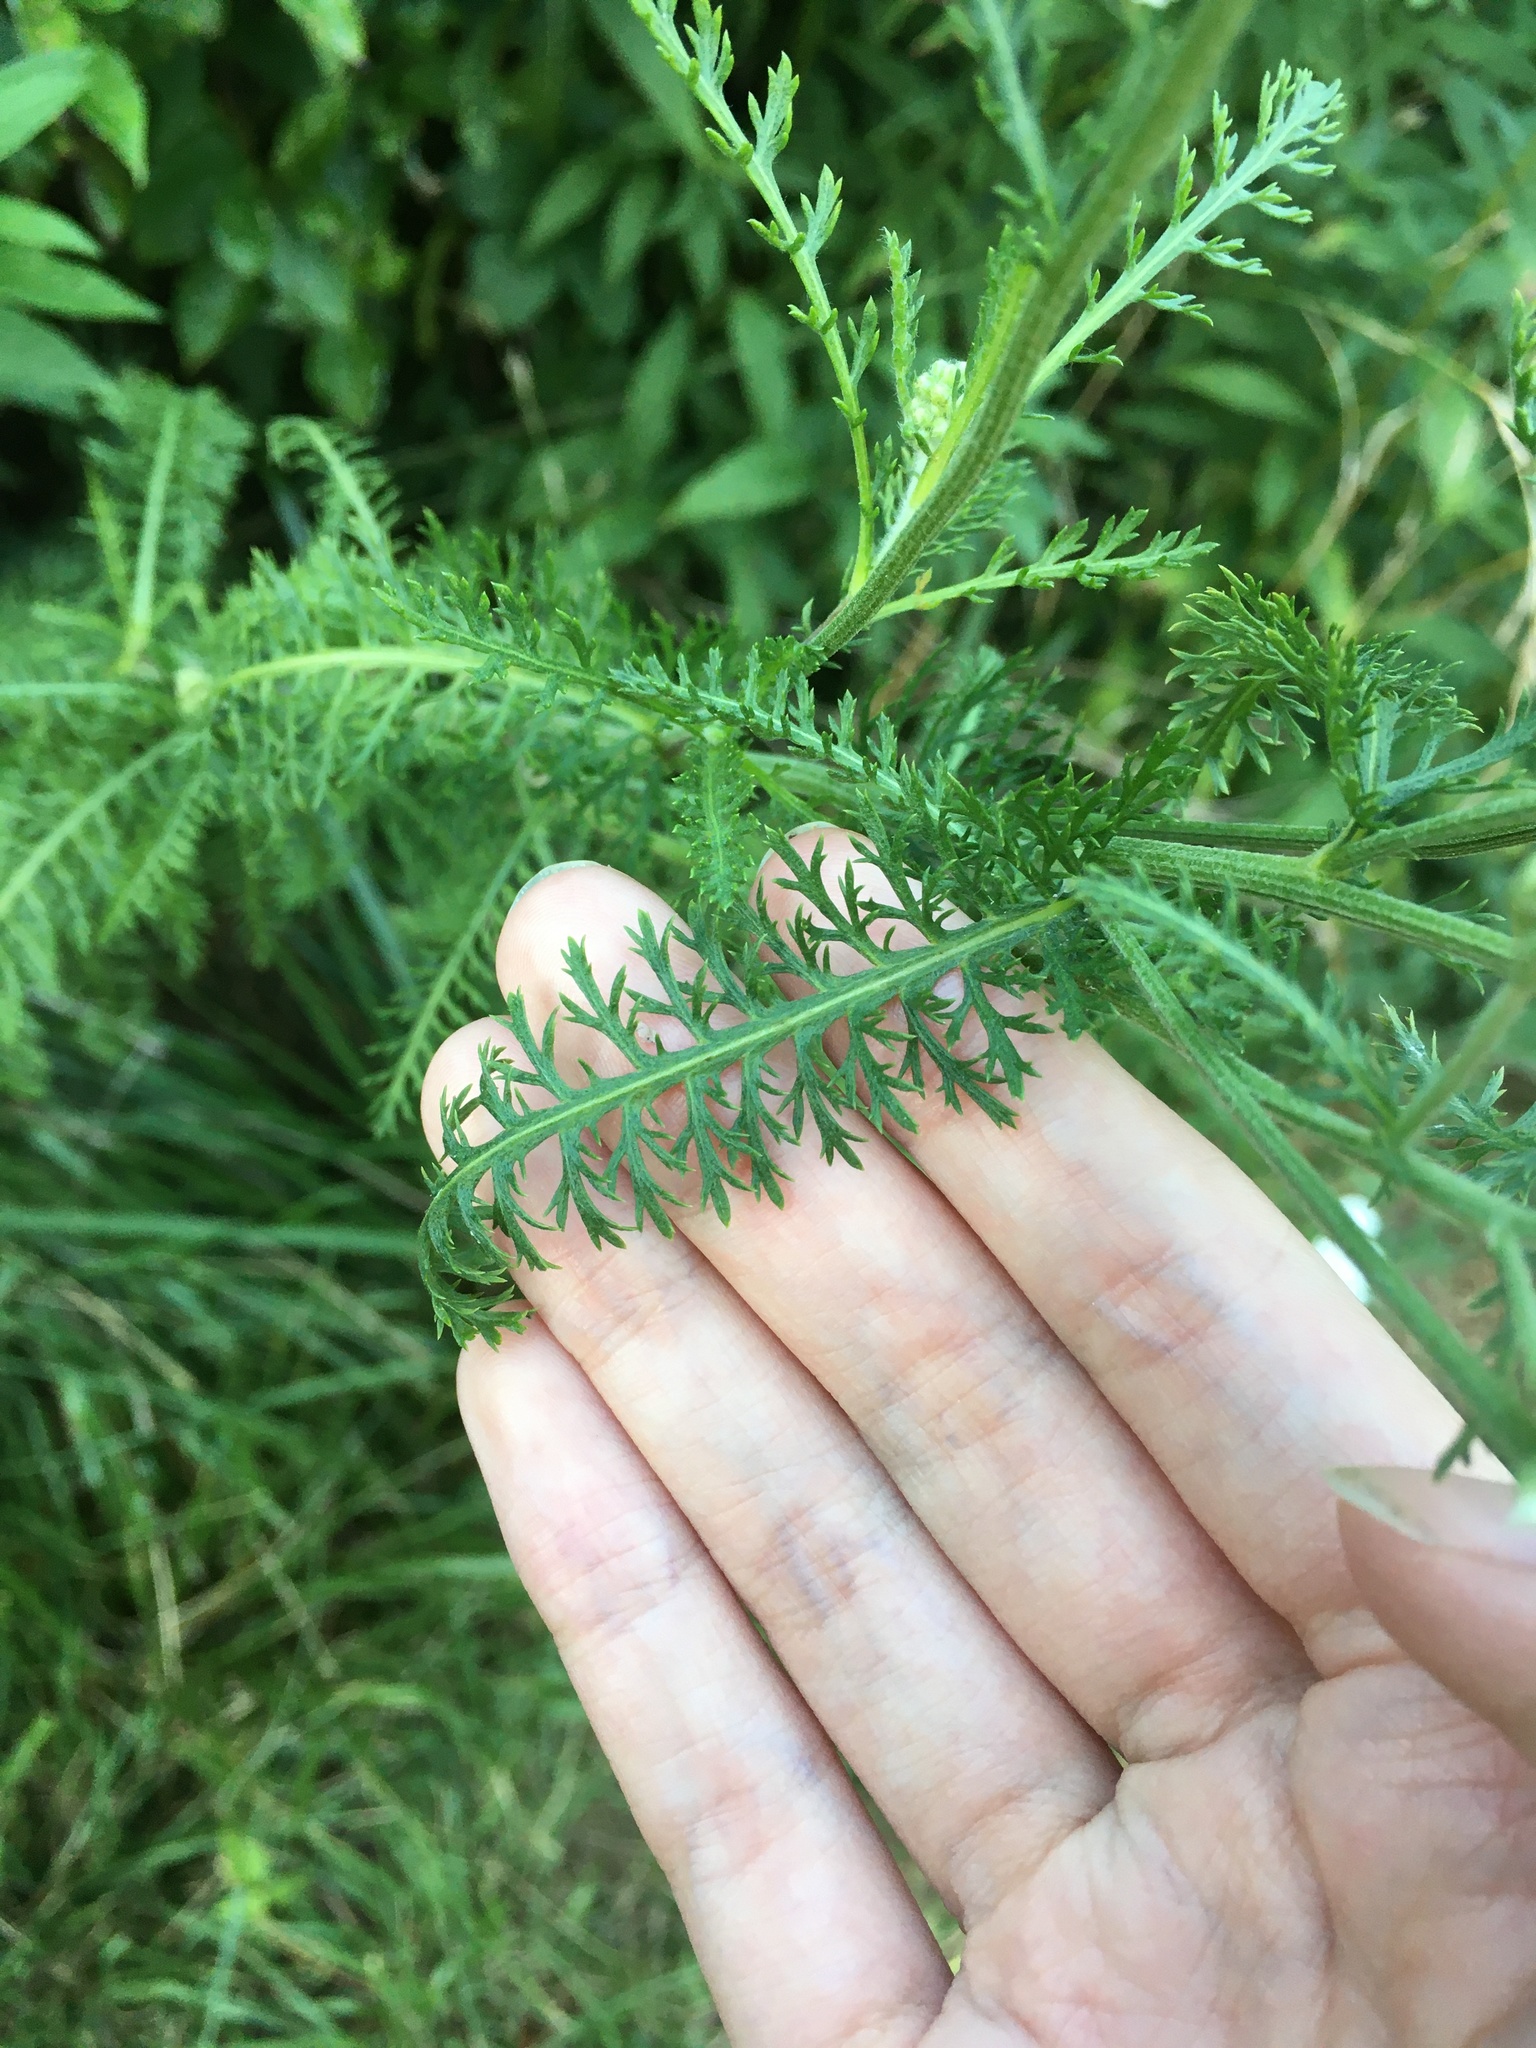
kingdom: Plantae
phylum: Tracheophyta
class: Magnoliopsida
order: Asterales
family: Asteraceae
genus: Achillea
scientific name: Achillea millefolium
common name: Yarrow
